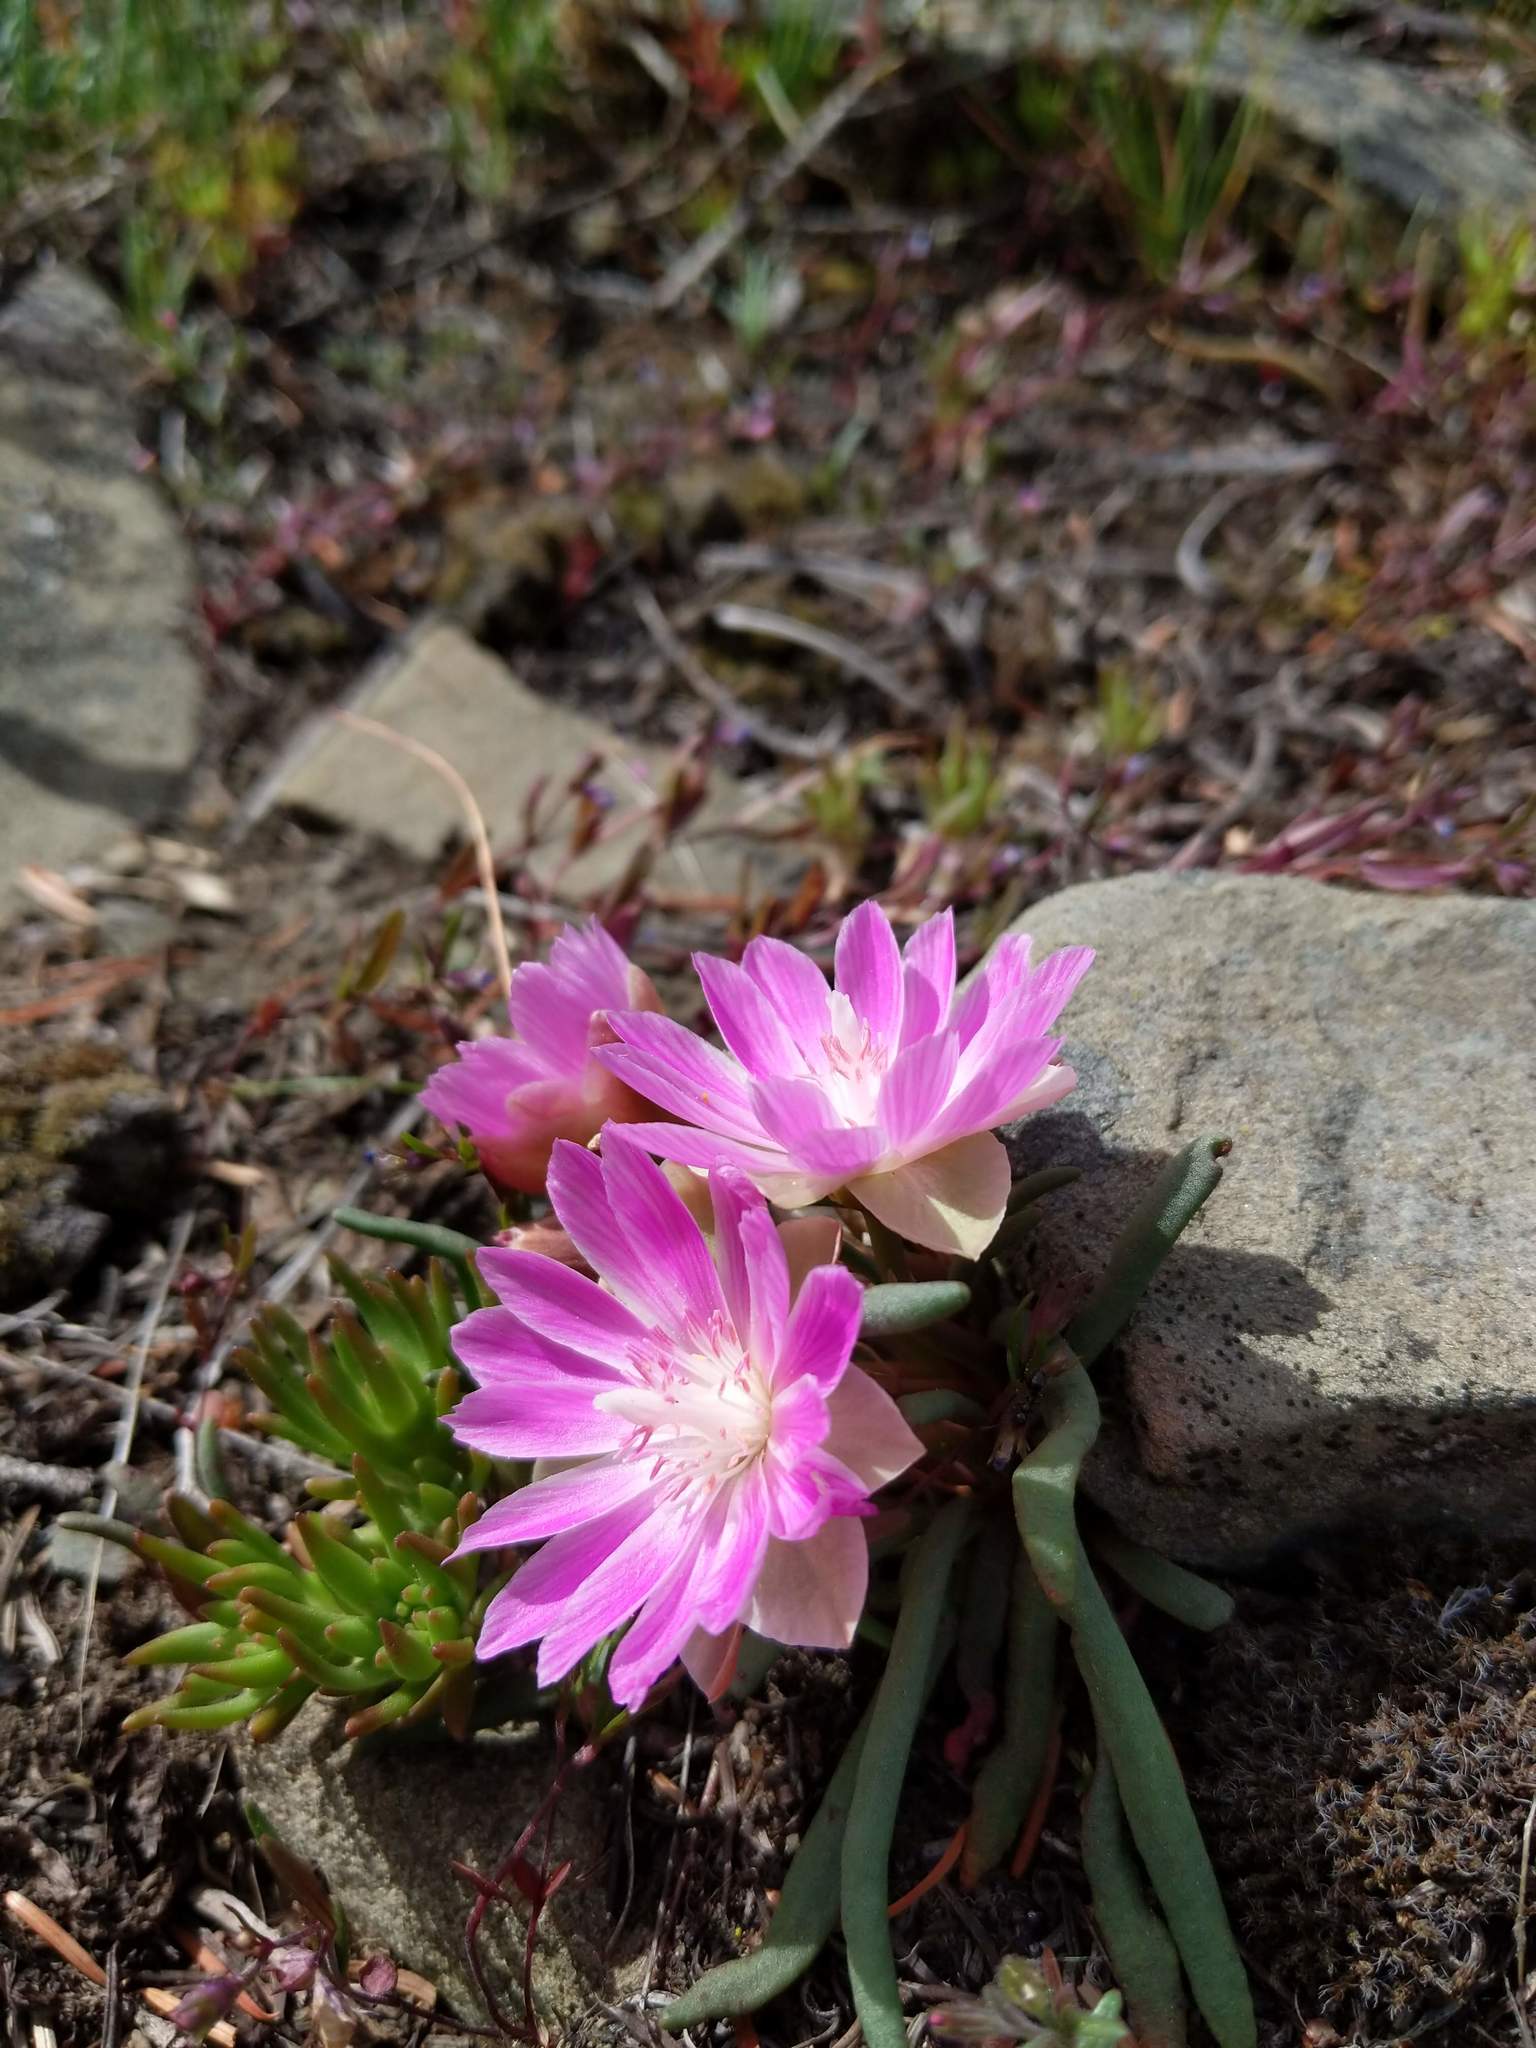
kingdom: Plantae
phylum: Tracheophyta
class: Magnoliopsida
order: Caryophyllales
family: Montiaceae
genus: Lewisia
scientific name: Lewisia rediviva
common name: Bitter-root
